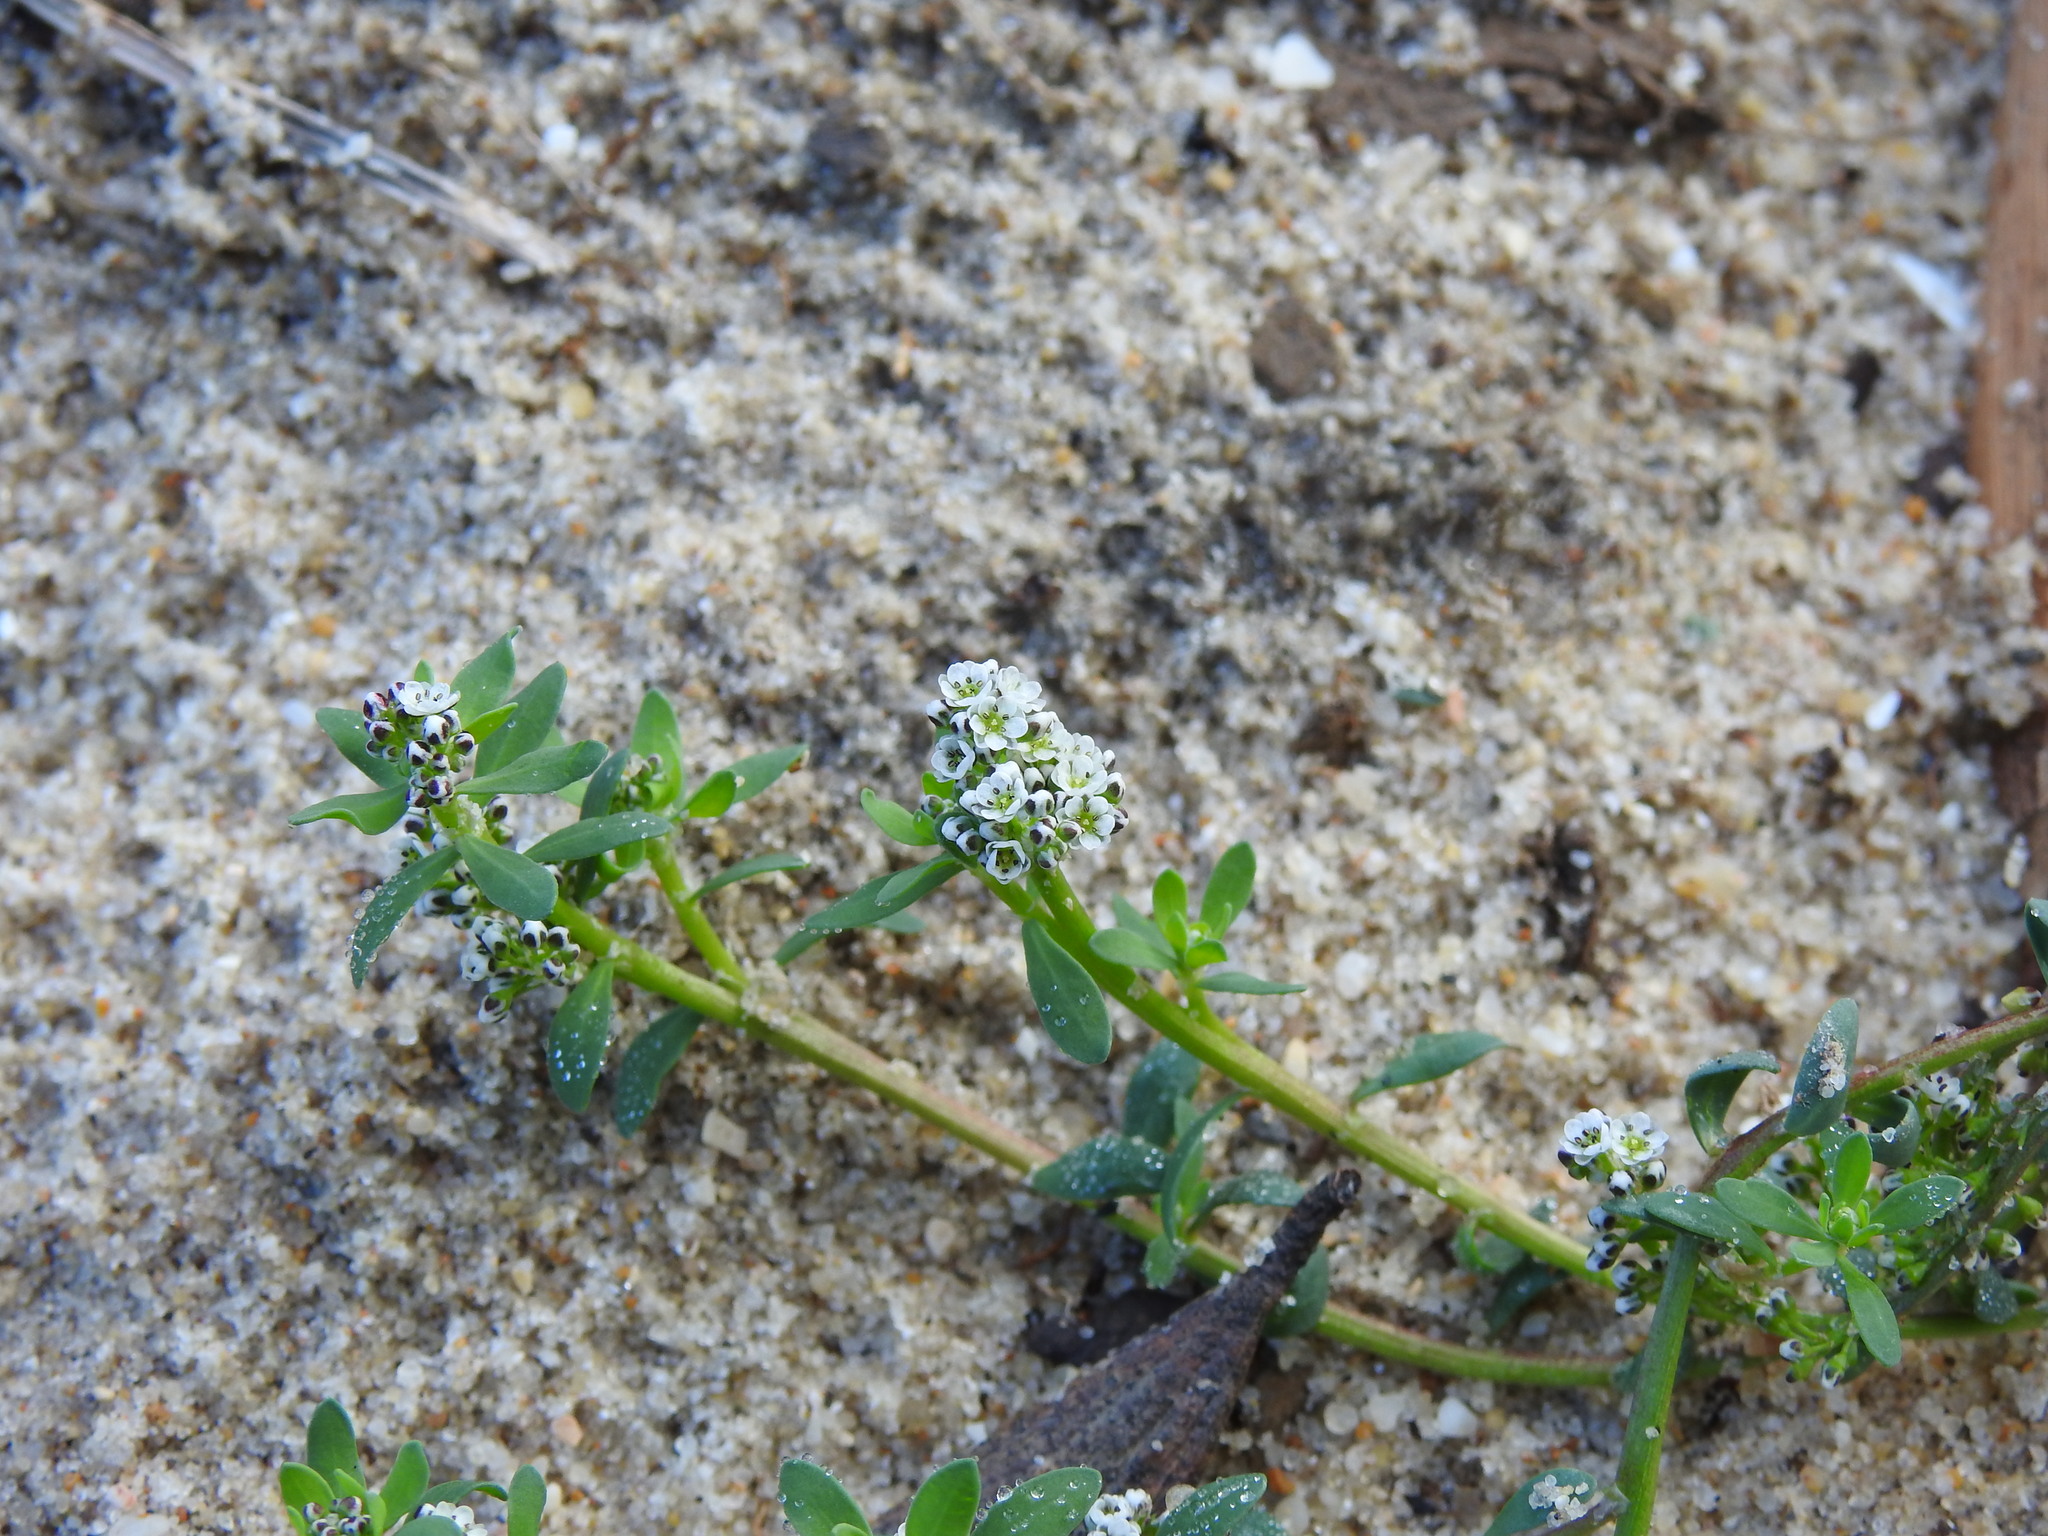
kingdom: Plantae
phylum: Tracheophyta
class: Magnoliopsida
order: Caryophyllales
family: Caryophyllaceae
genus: Corrigiola
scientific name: Corrigiola litoralis
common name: Strapwort
